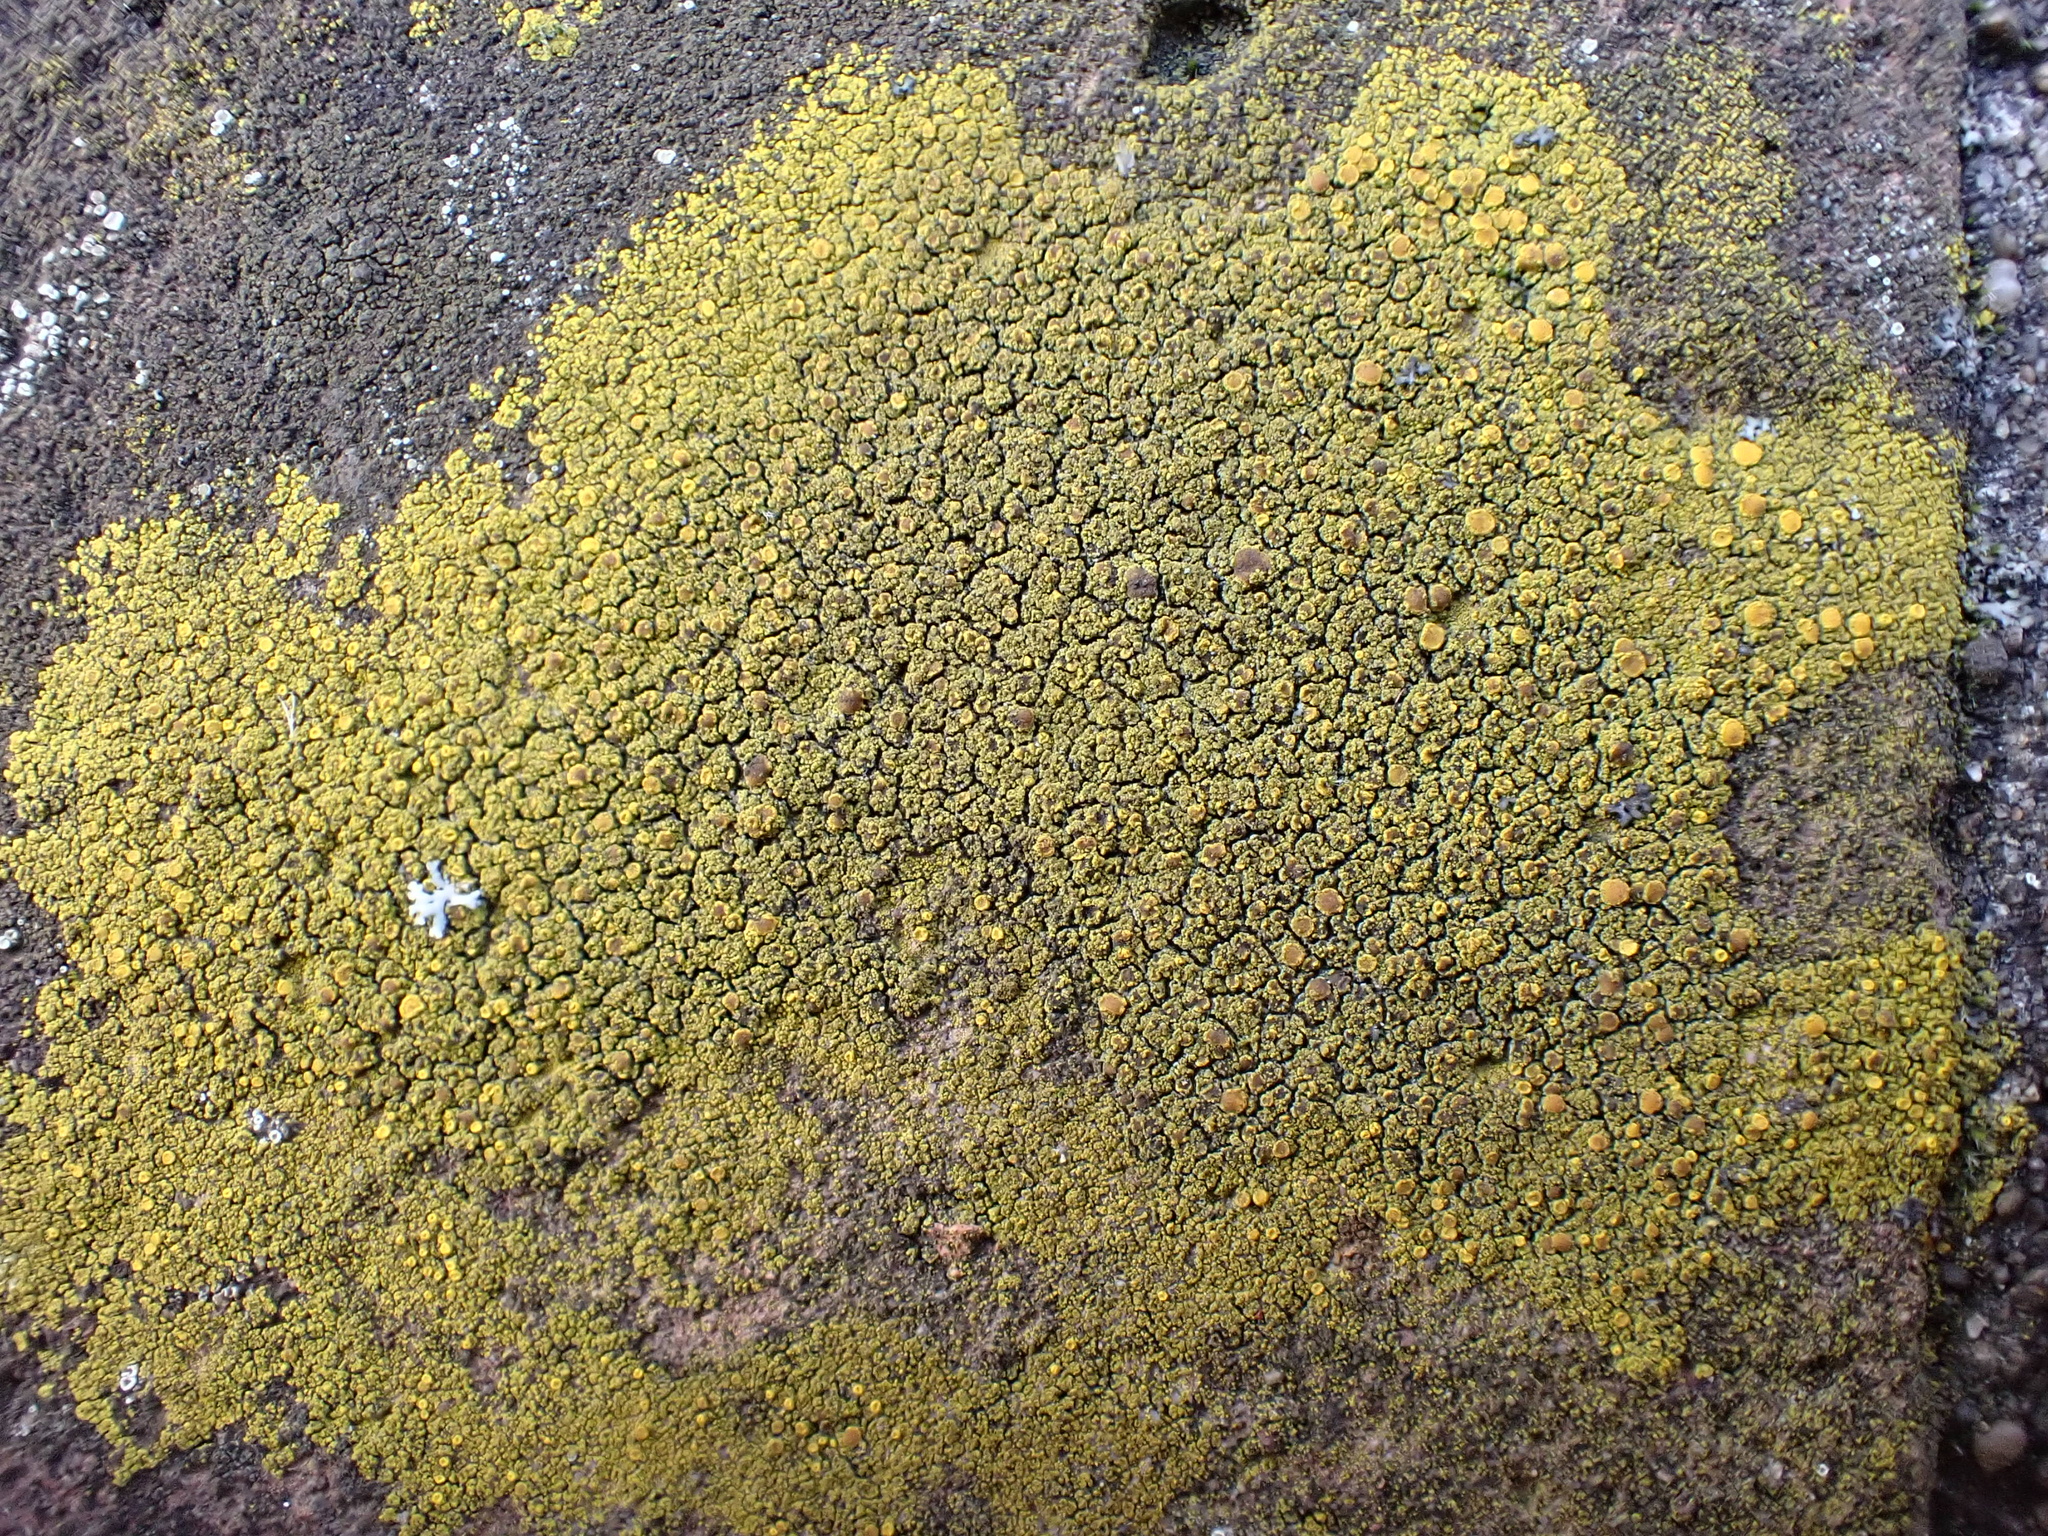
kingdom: Fungi
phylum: Ascomycota
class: Candelariomycetes
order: Candelariales
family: Candelariaceae
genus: Candelariella
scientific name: Candelariella vitellina
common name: Common goldspeck
